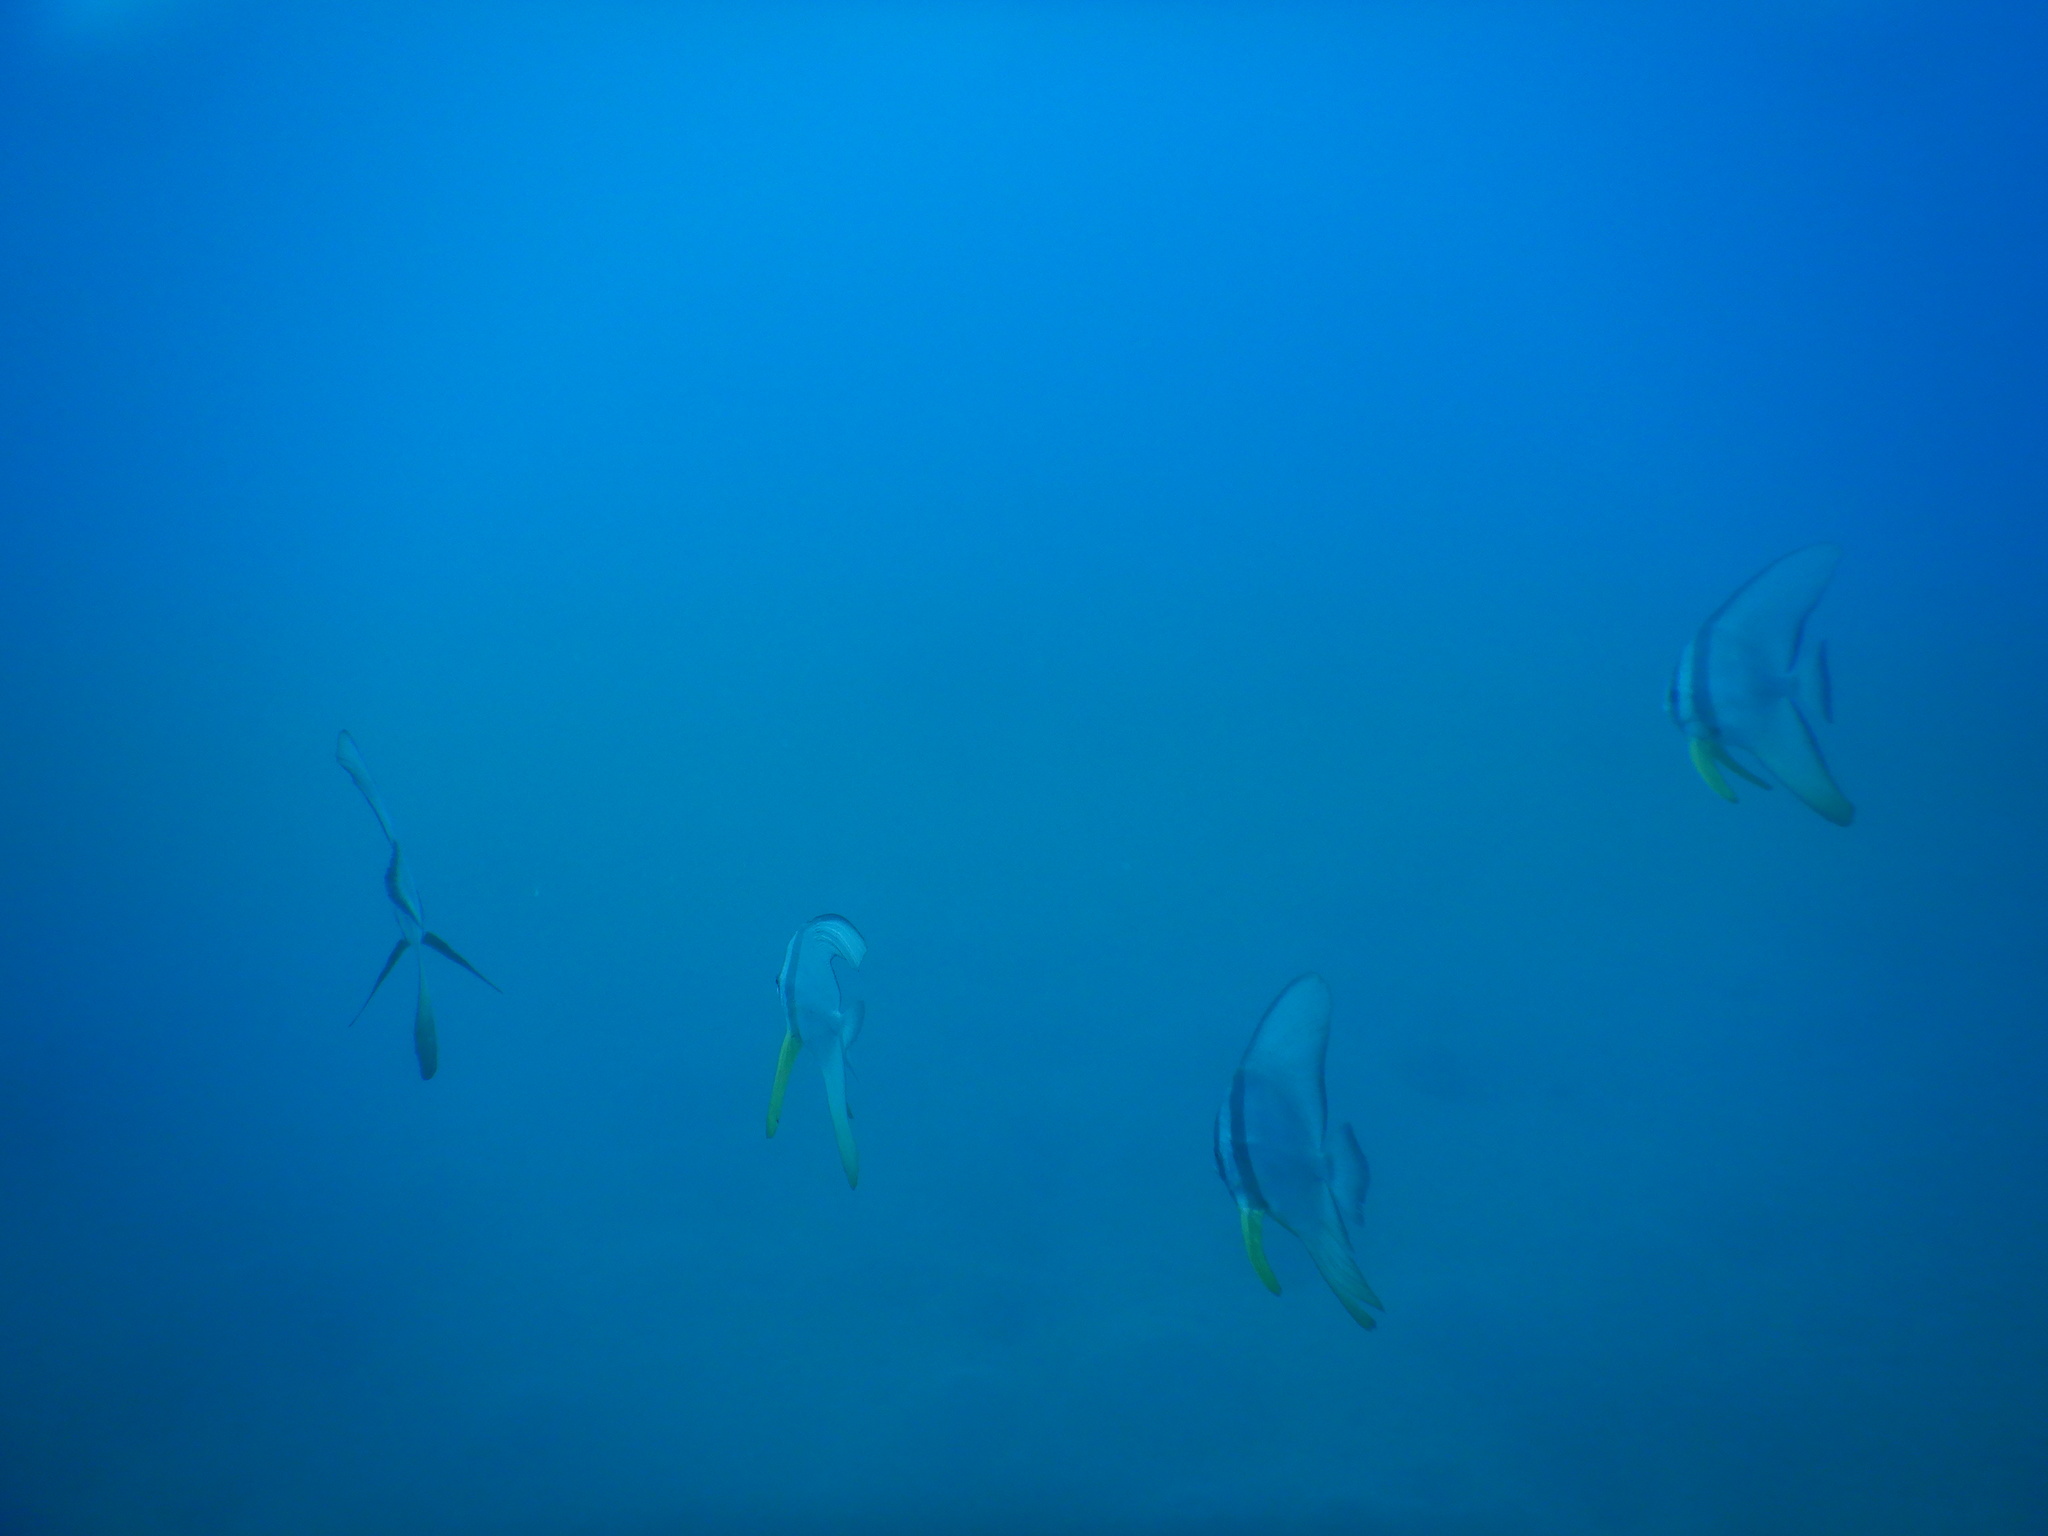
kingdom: Animalia
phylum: Chordata
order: Perciformes
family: Ephippidae
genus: Platax
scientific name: Platax teira
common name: Longfin baitfish
